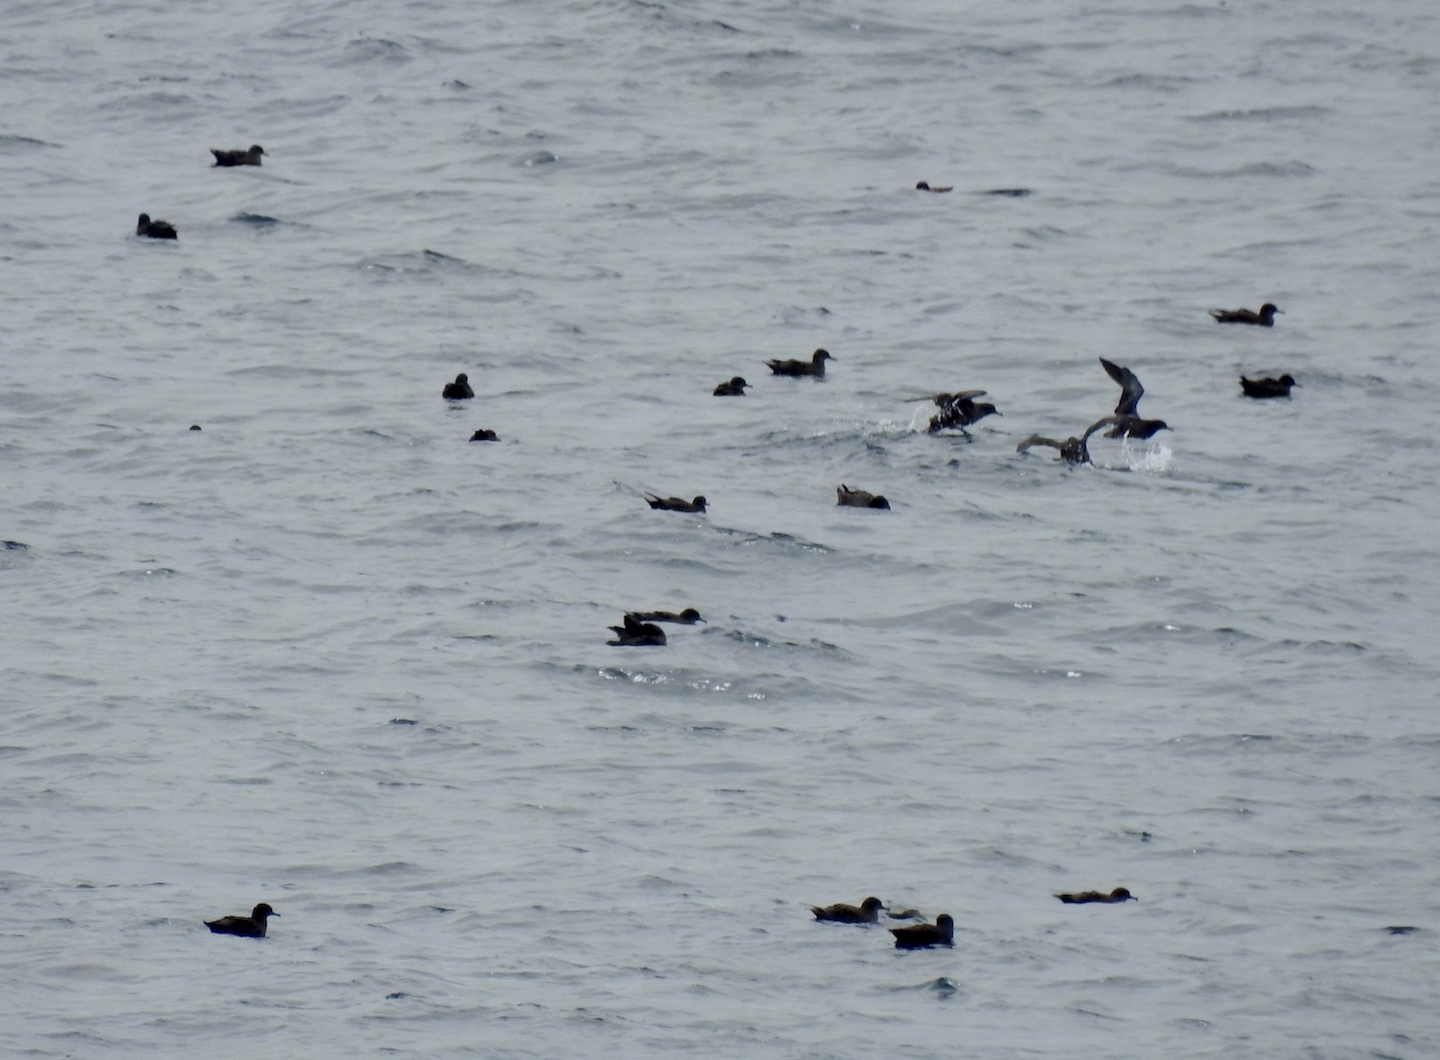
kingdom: Animalia
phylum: Chordata
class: Aves
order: Procellariiformes
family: Procellariidae
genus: Puffinus
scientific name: Puffinus griseus
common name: Sooty shearwater
